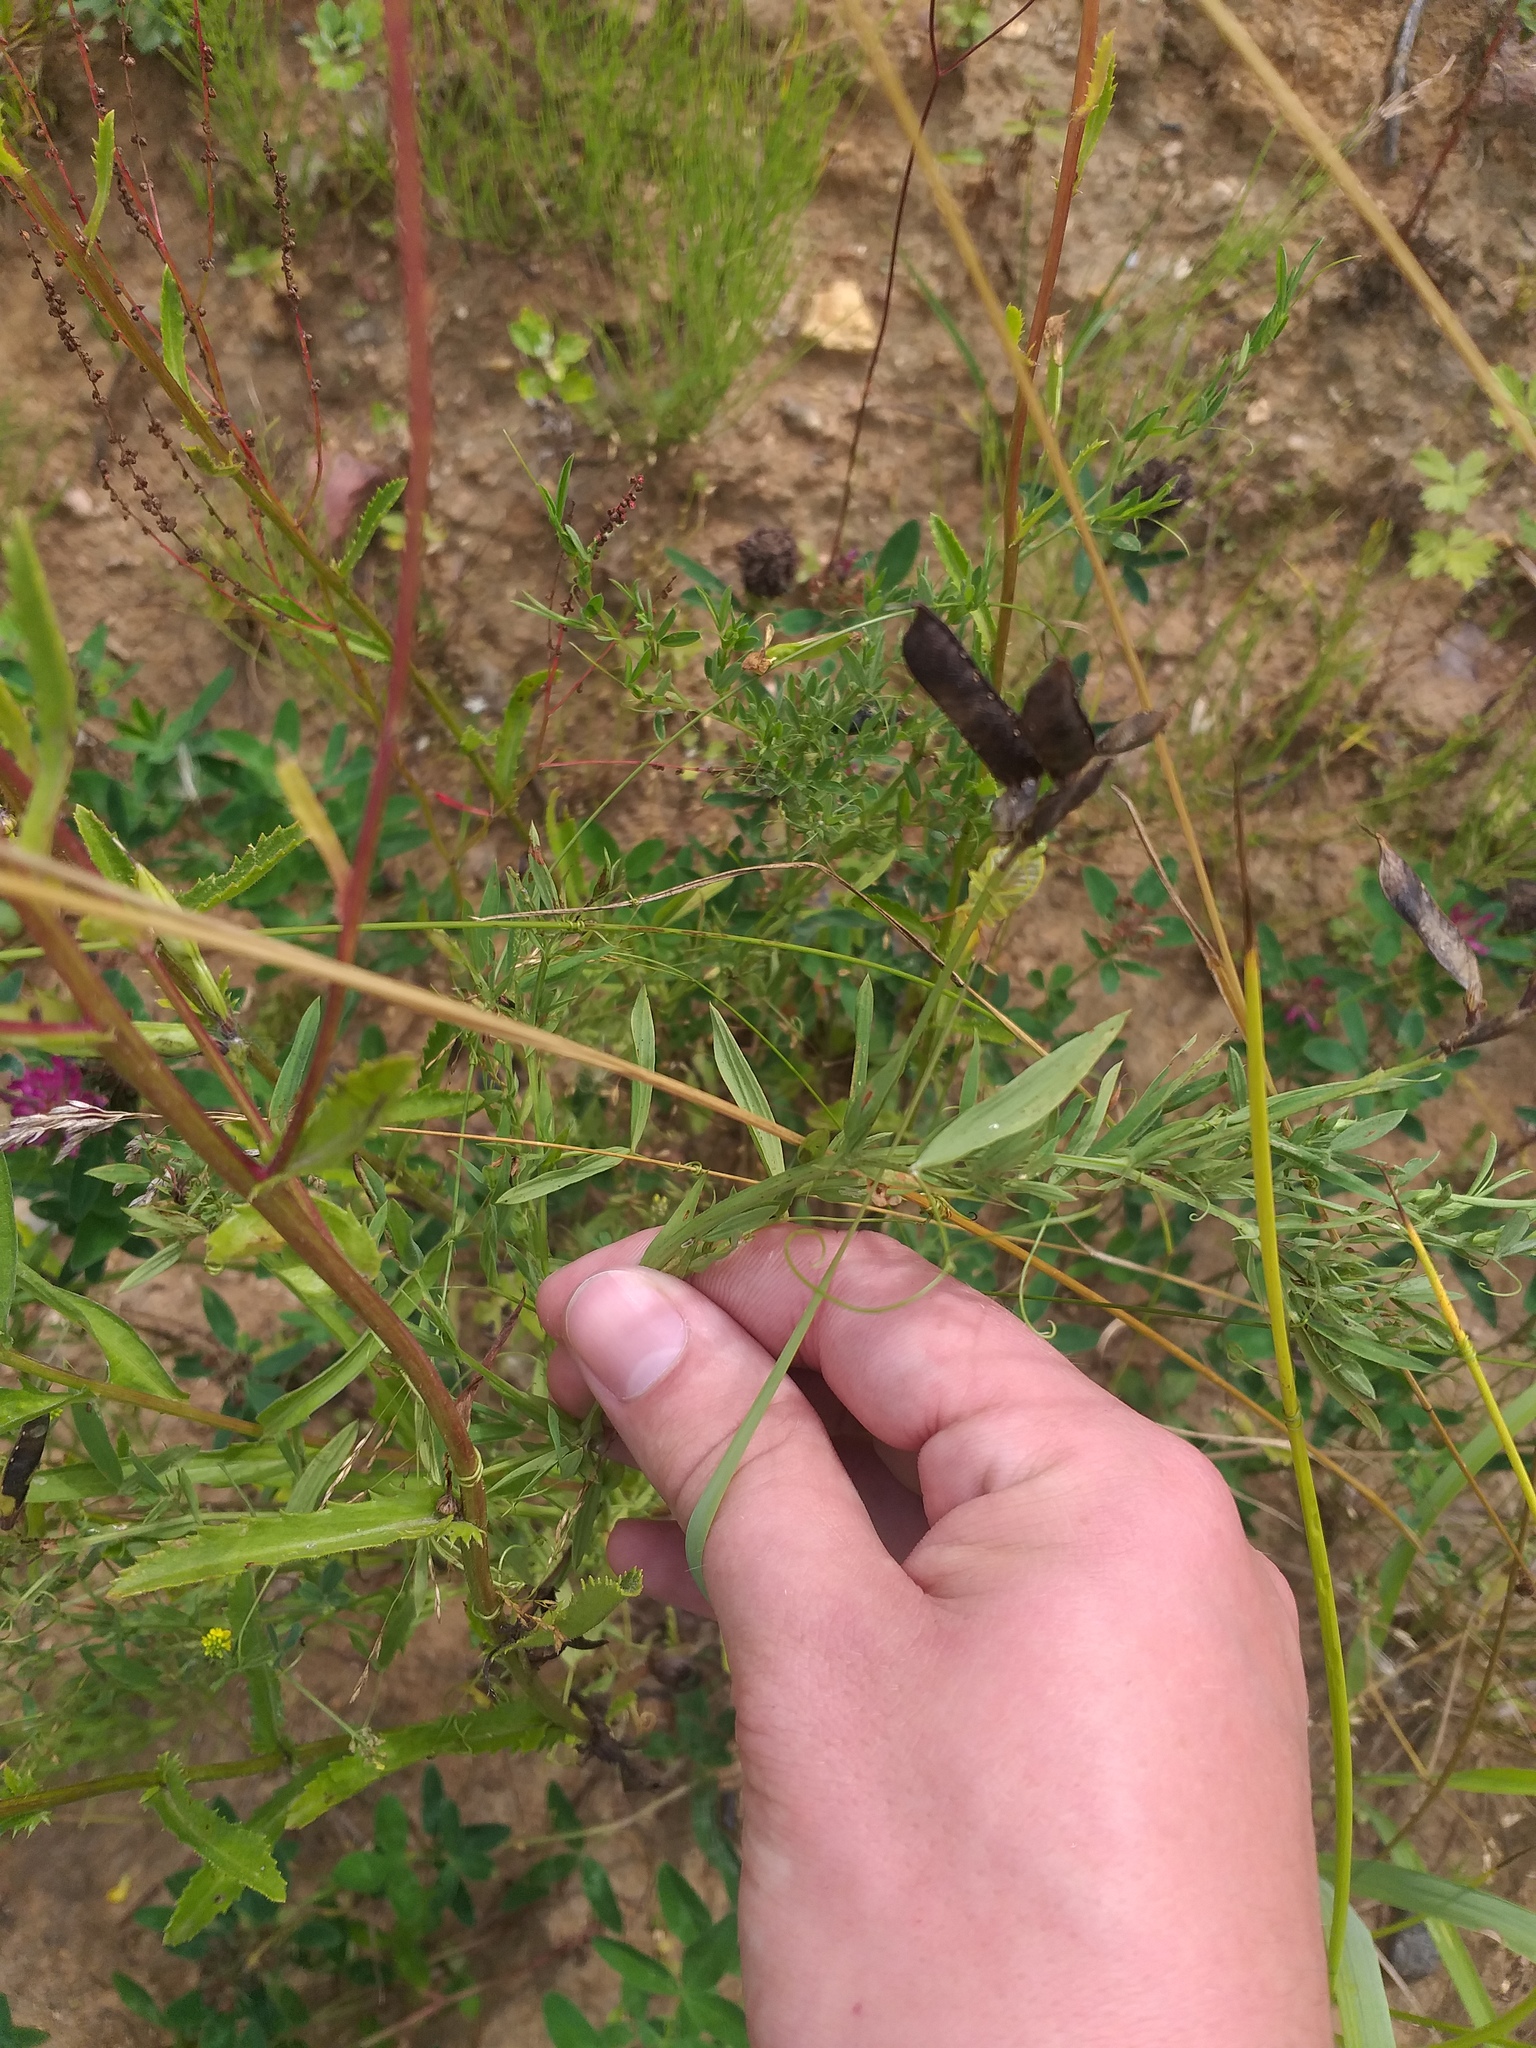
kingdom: Plantae
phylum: Tracheophyta
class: Magnoliopsida
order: Fabales
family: Fabaceae
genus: Lathyrus
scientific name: Lathyrus pratensis
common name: Meadow vetchling
